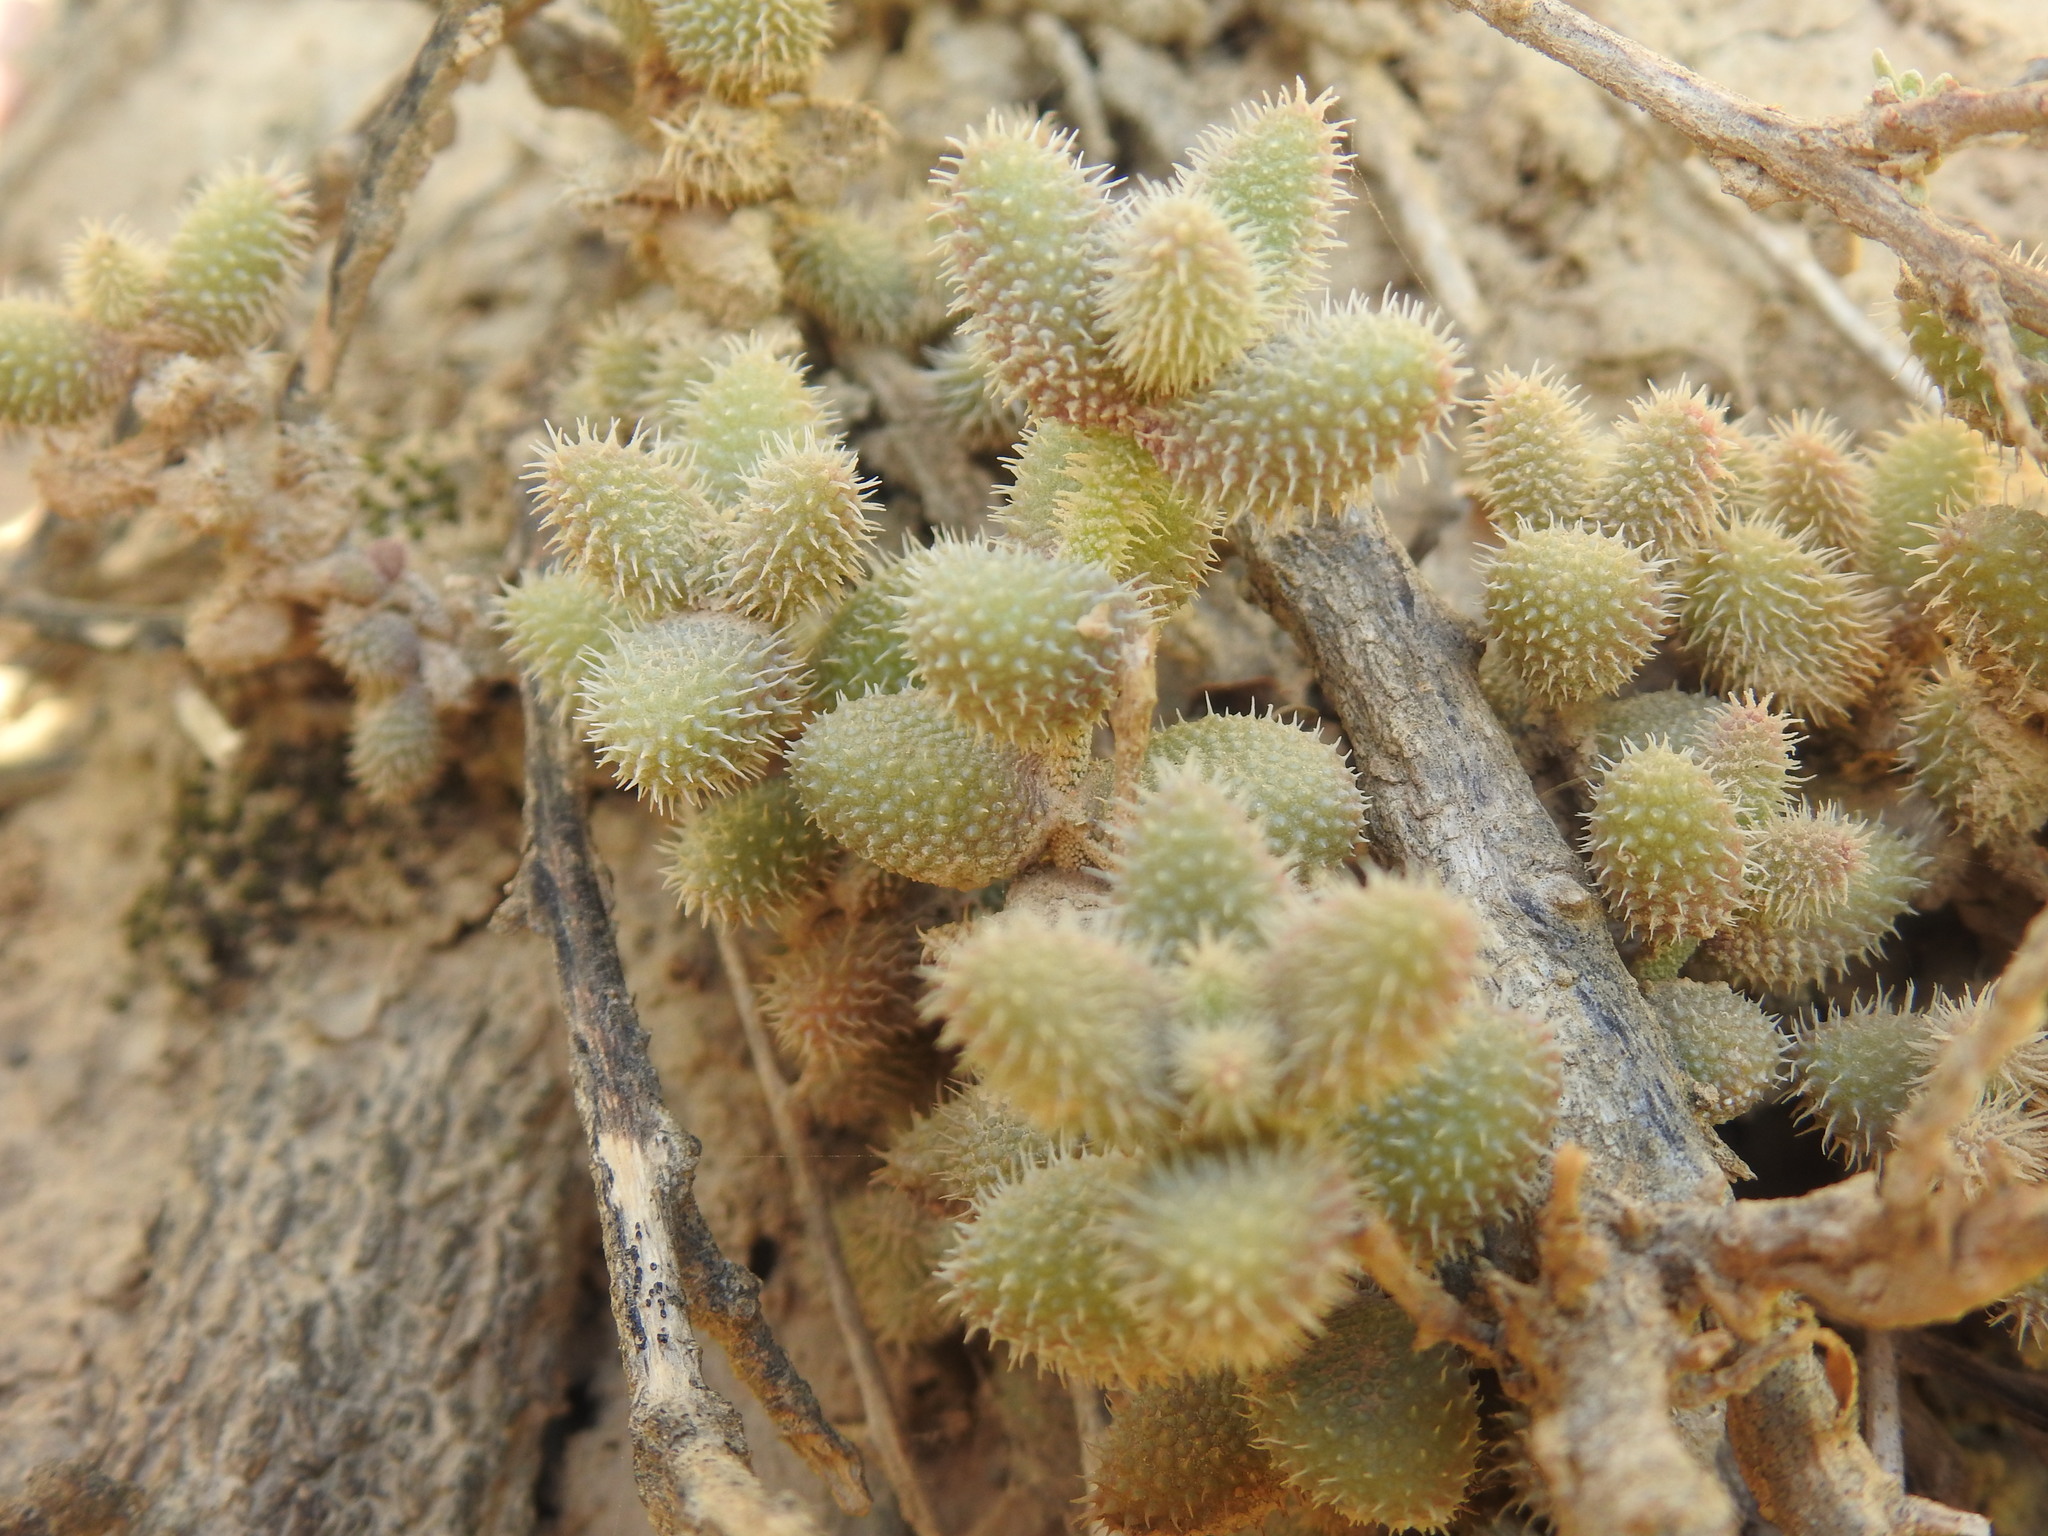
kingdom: Plantae
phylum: Tracheophyta
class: Magnoliopsida
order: Caryophyllales
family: Aizoaceae
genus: Delosperma
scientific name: Delosperma echinatum
